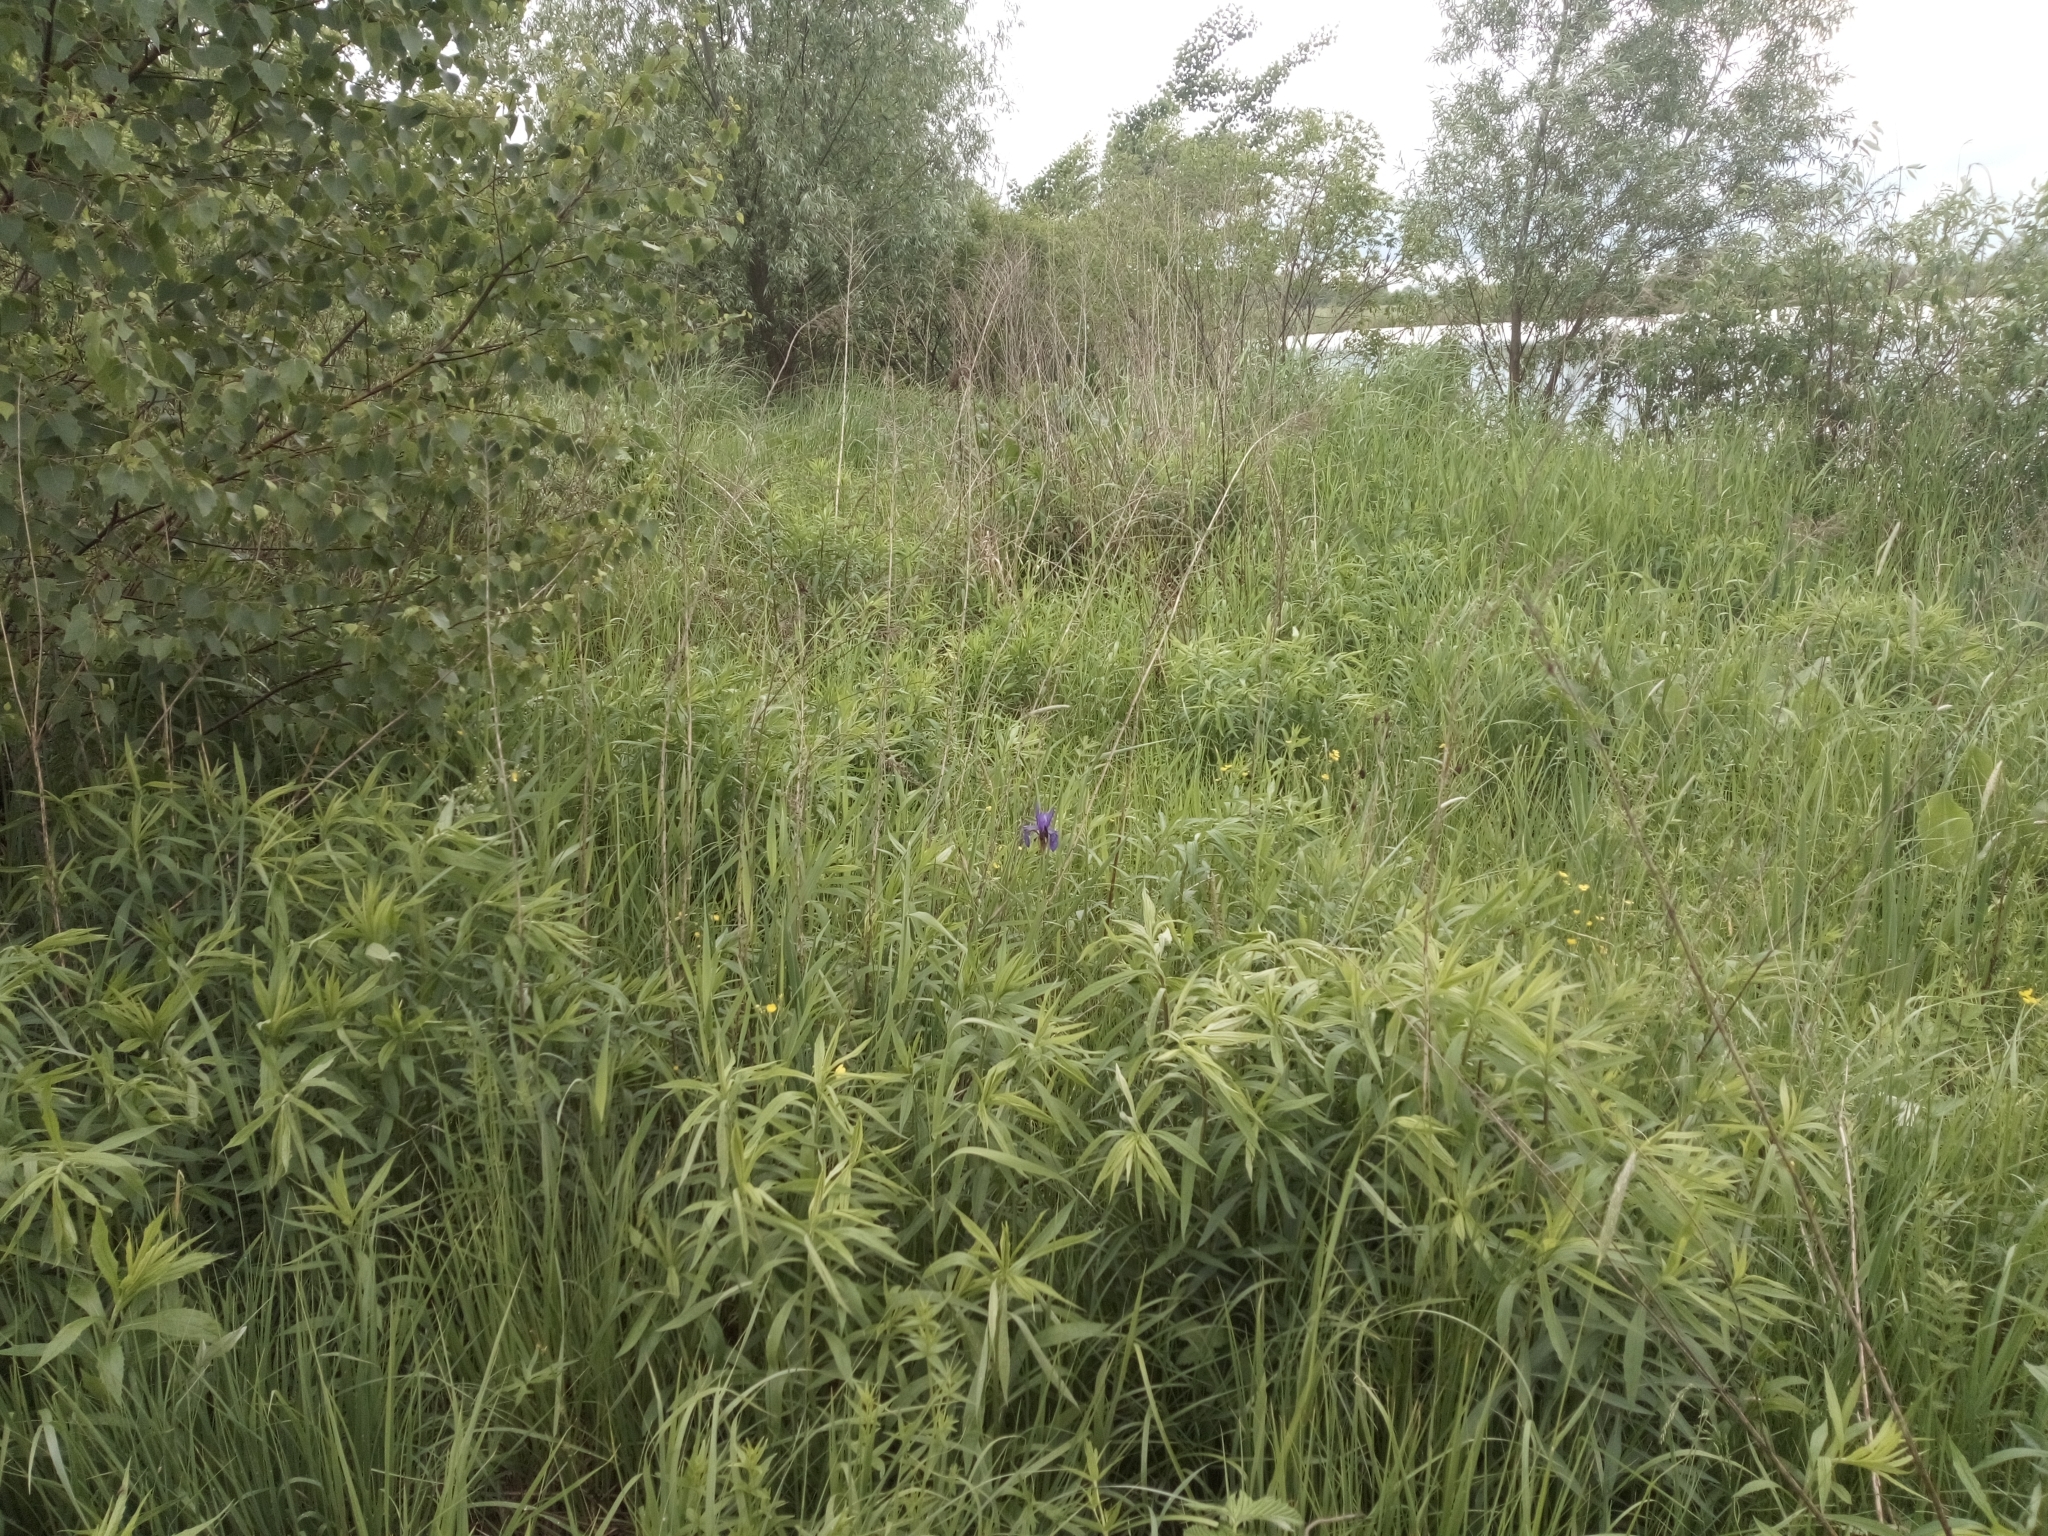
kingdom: Plantae
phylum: Tracheophyta
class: Liliopsida
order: Asparagales
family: Iridaceae
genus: Iris
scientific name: Iris sibirica
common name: Siberian iris
